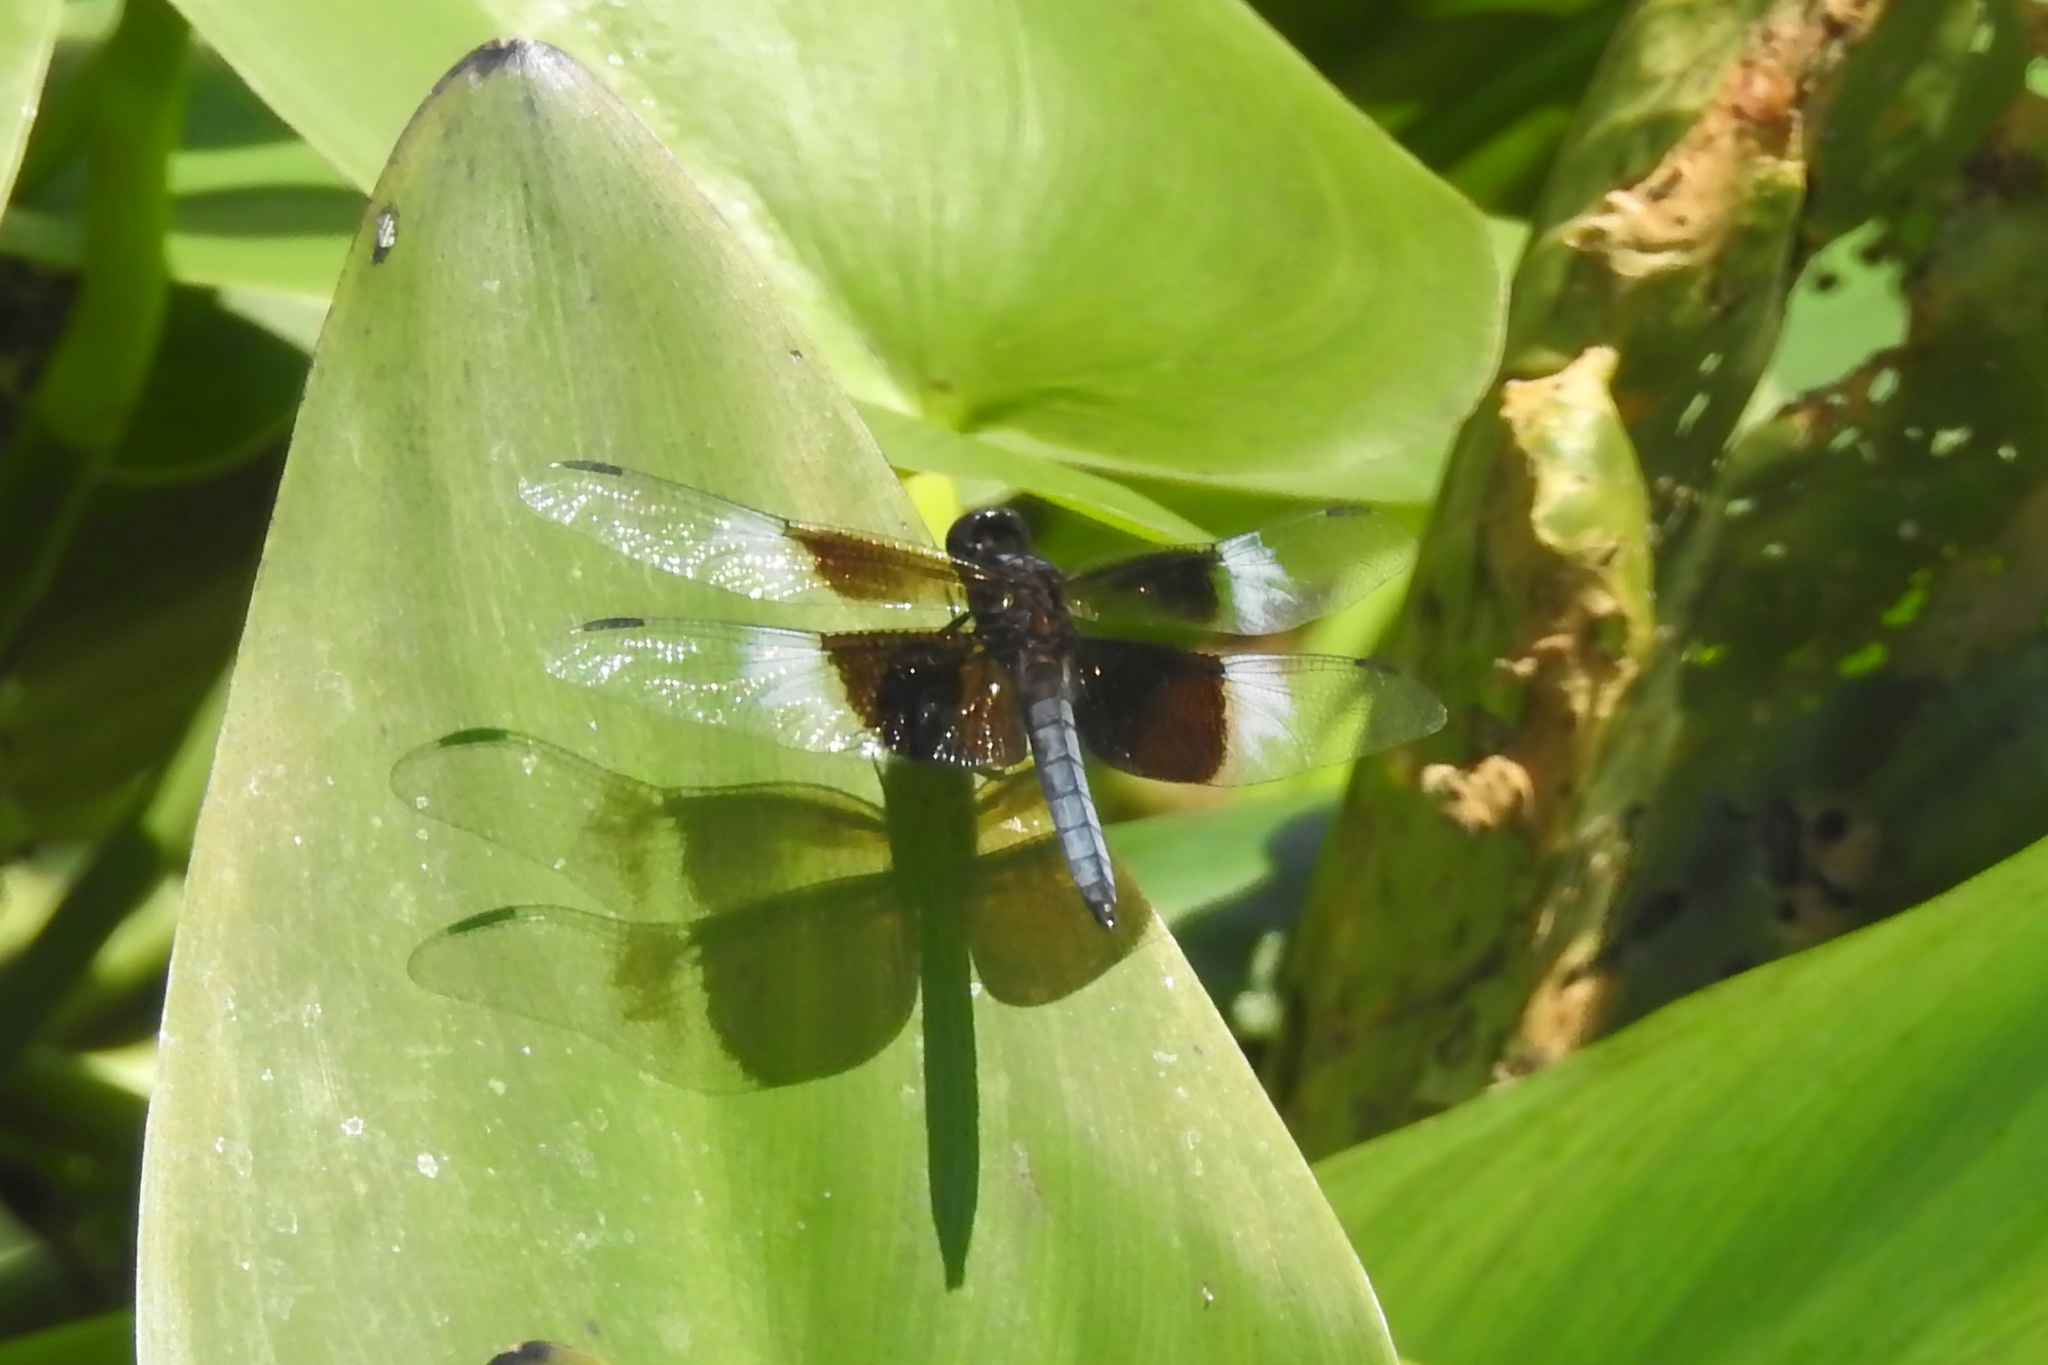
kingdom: Animalia
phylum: Arthropoda
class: Insecta
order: Odonata
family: Libellulidae
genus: Libellula
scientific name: Libellula luctuosa
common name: Widow skimmer
